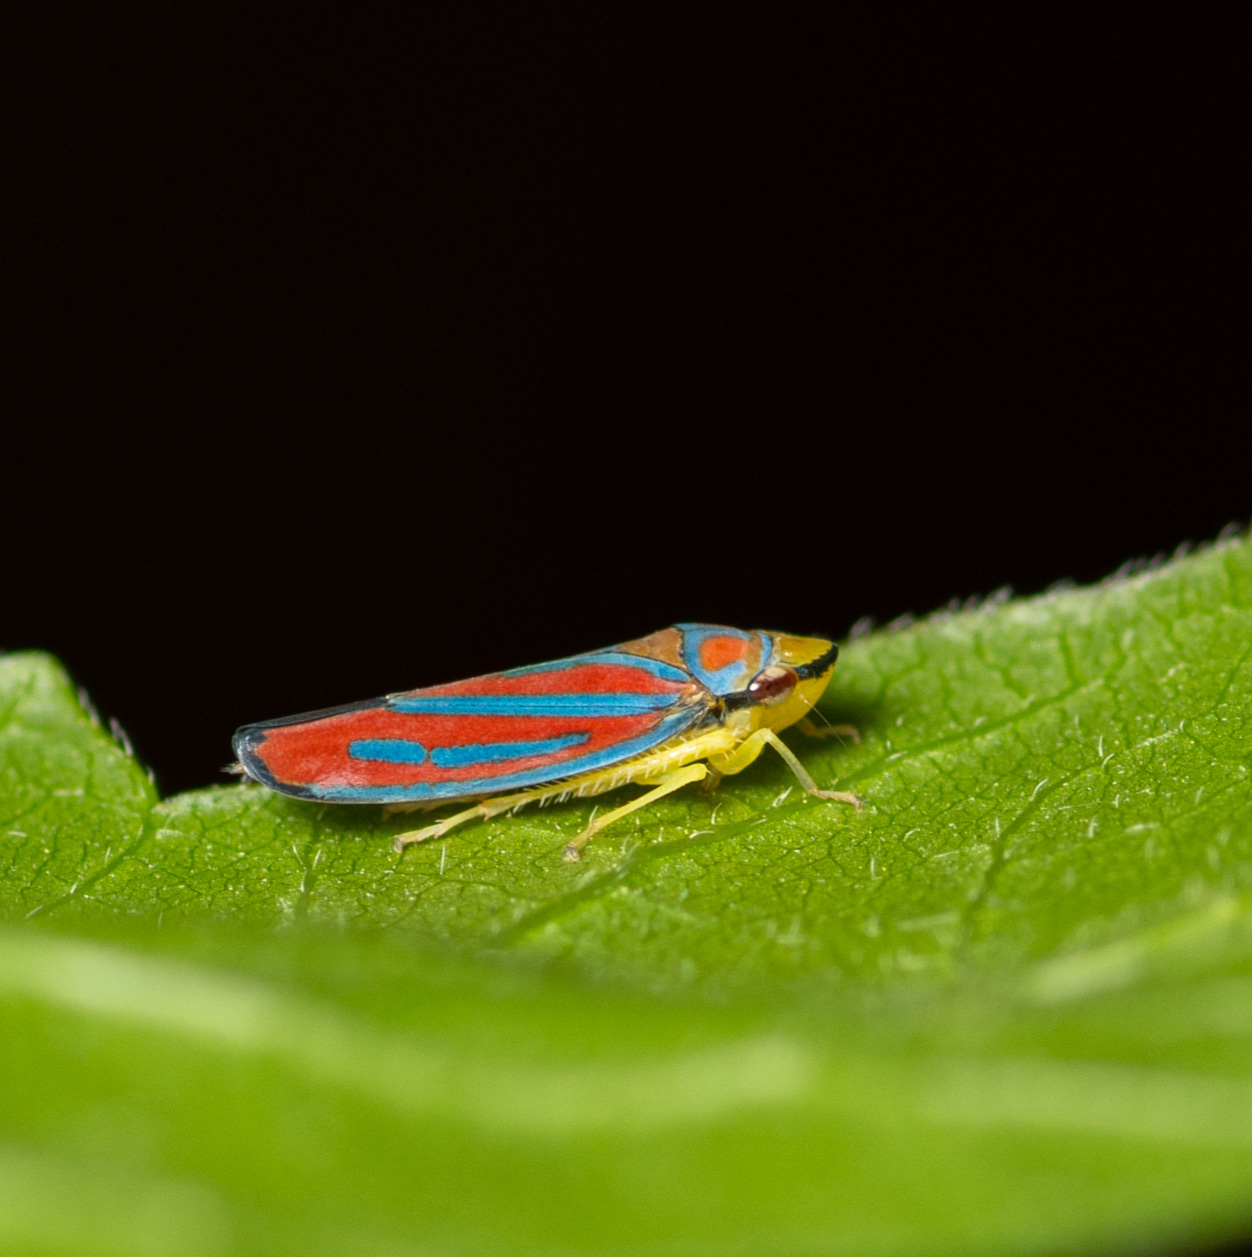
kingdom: Animalia
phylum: Arthropoda
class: Insecta
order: Hemiptera
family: Cicadellidae
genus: Graphocephala
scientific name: Graphocephala coccinea
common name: Candy-striped leafhopper
